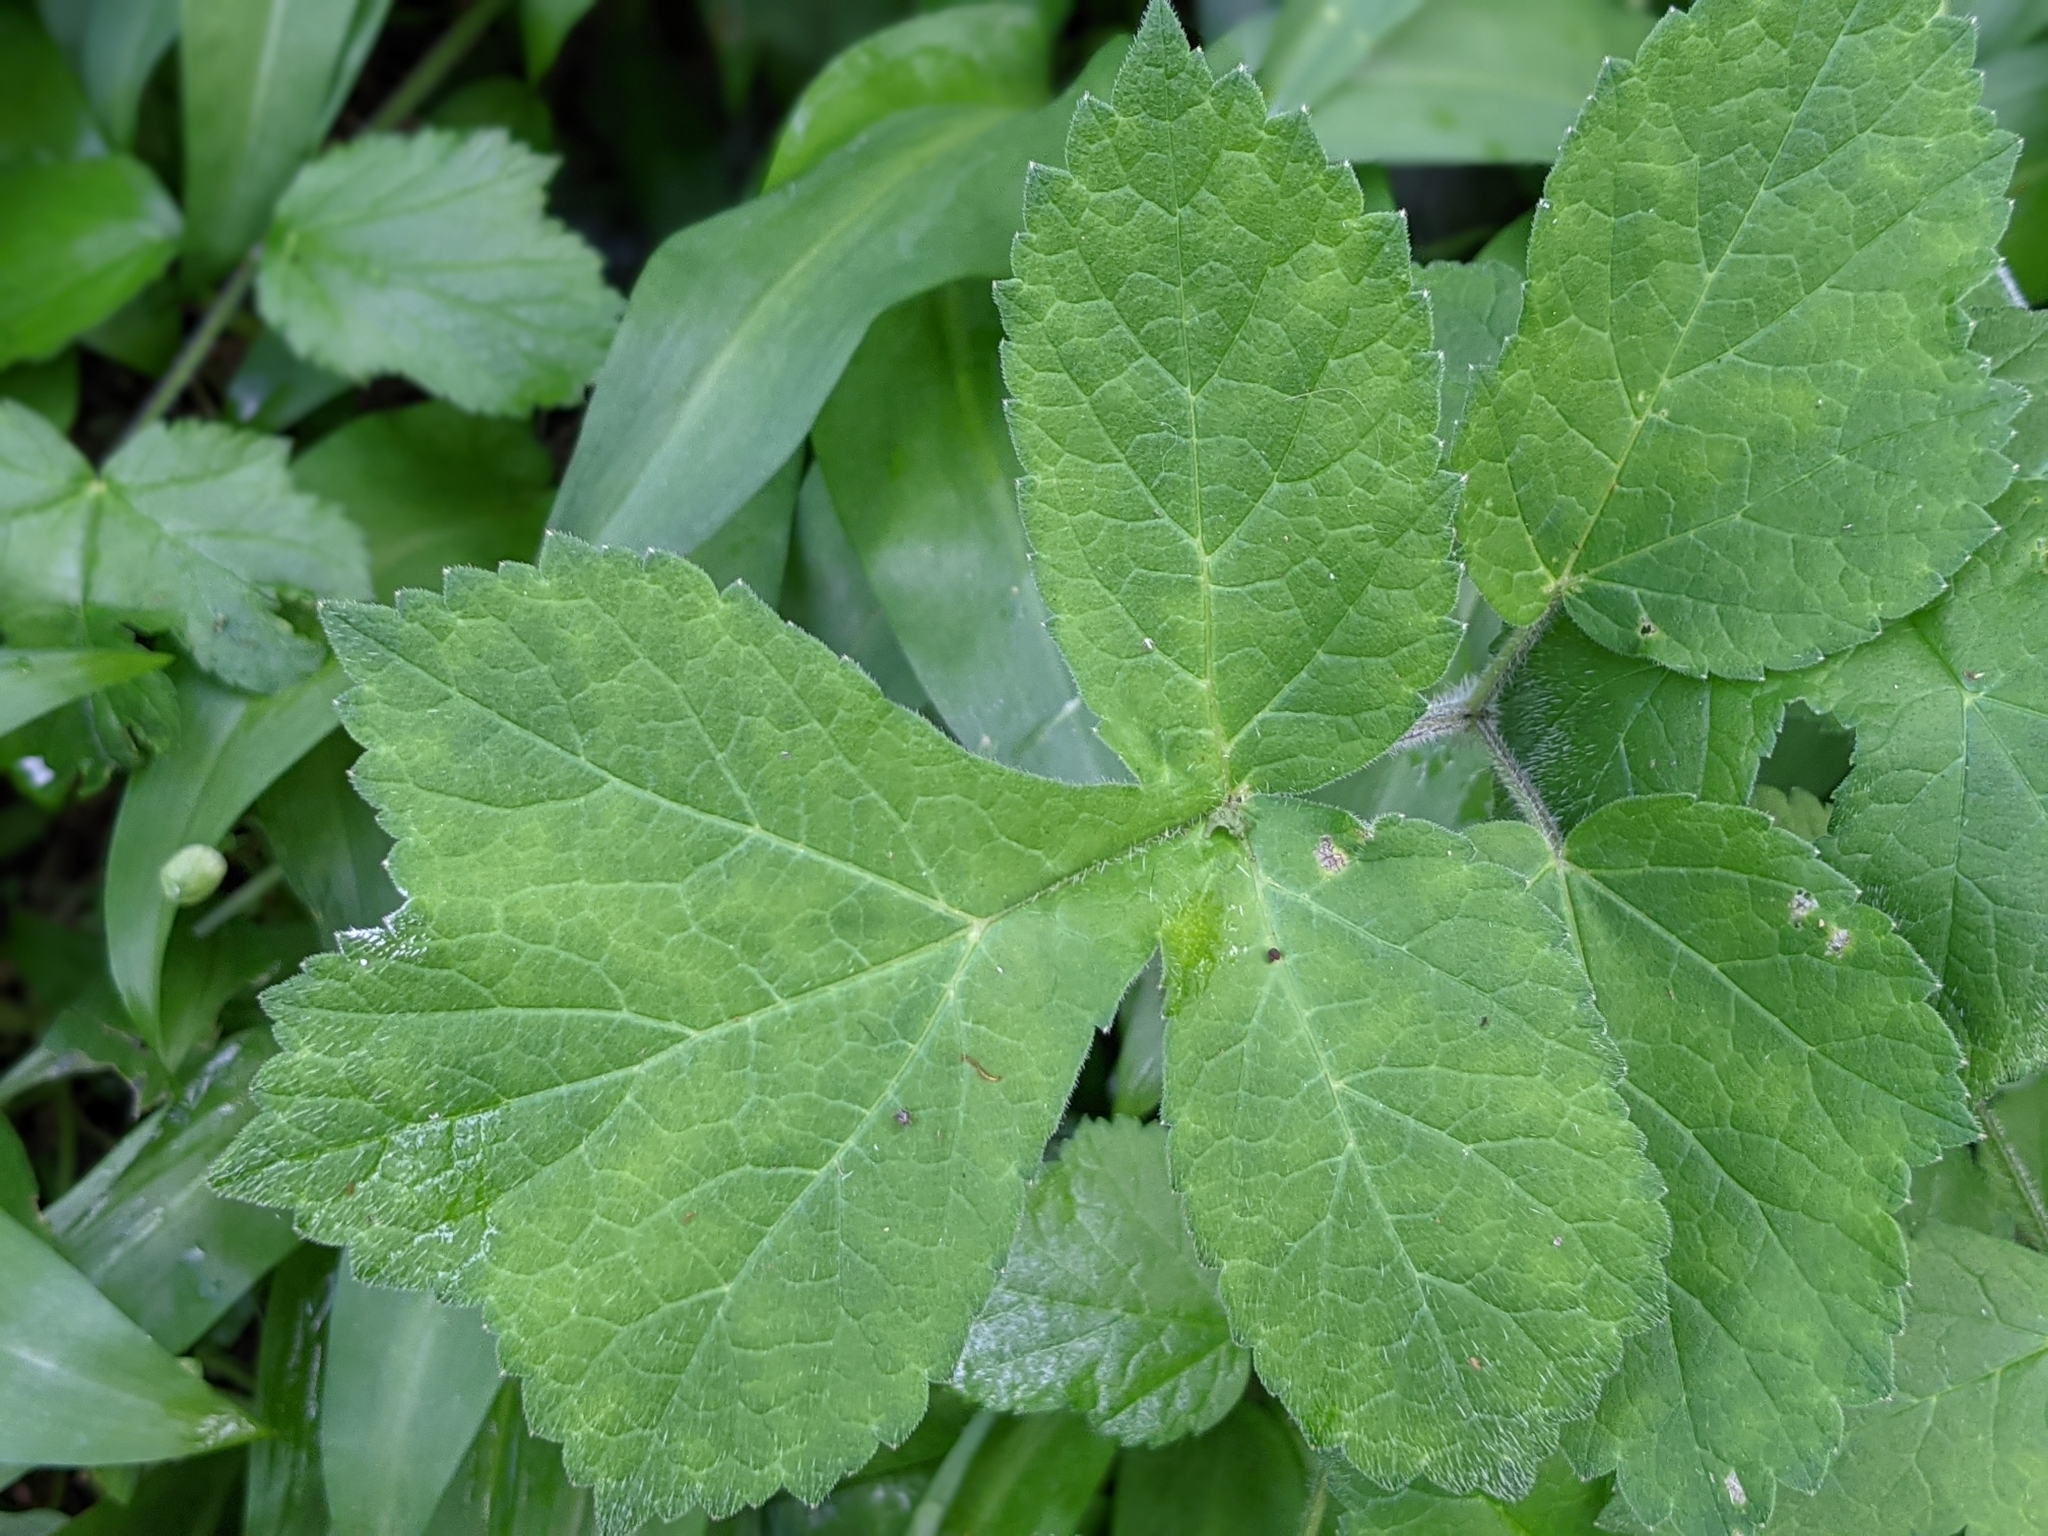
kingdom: Plantae
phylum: Tracheophyta
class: Magnoliopsida
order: Apiales
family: Apiaceae
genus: Heracleum
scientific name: Heracleum sphondylium
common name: Hogweed
